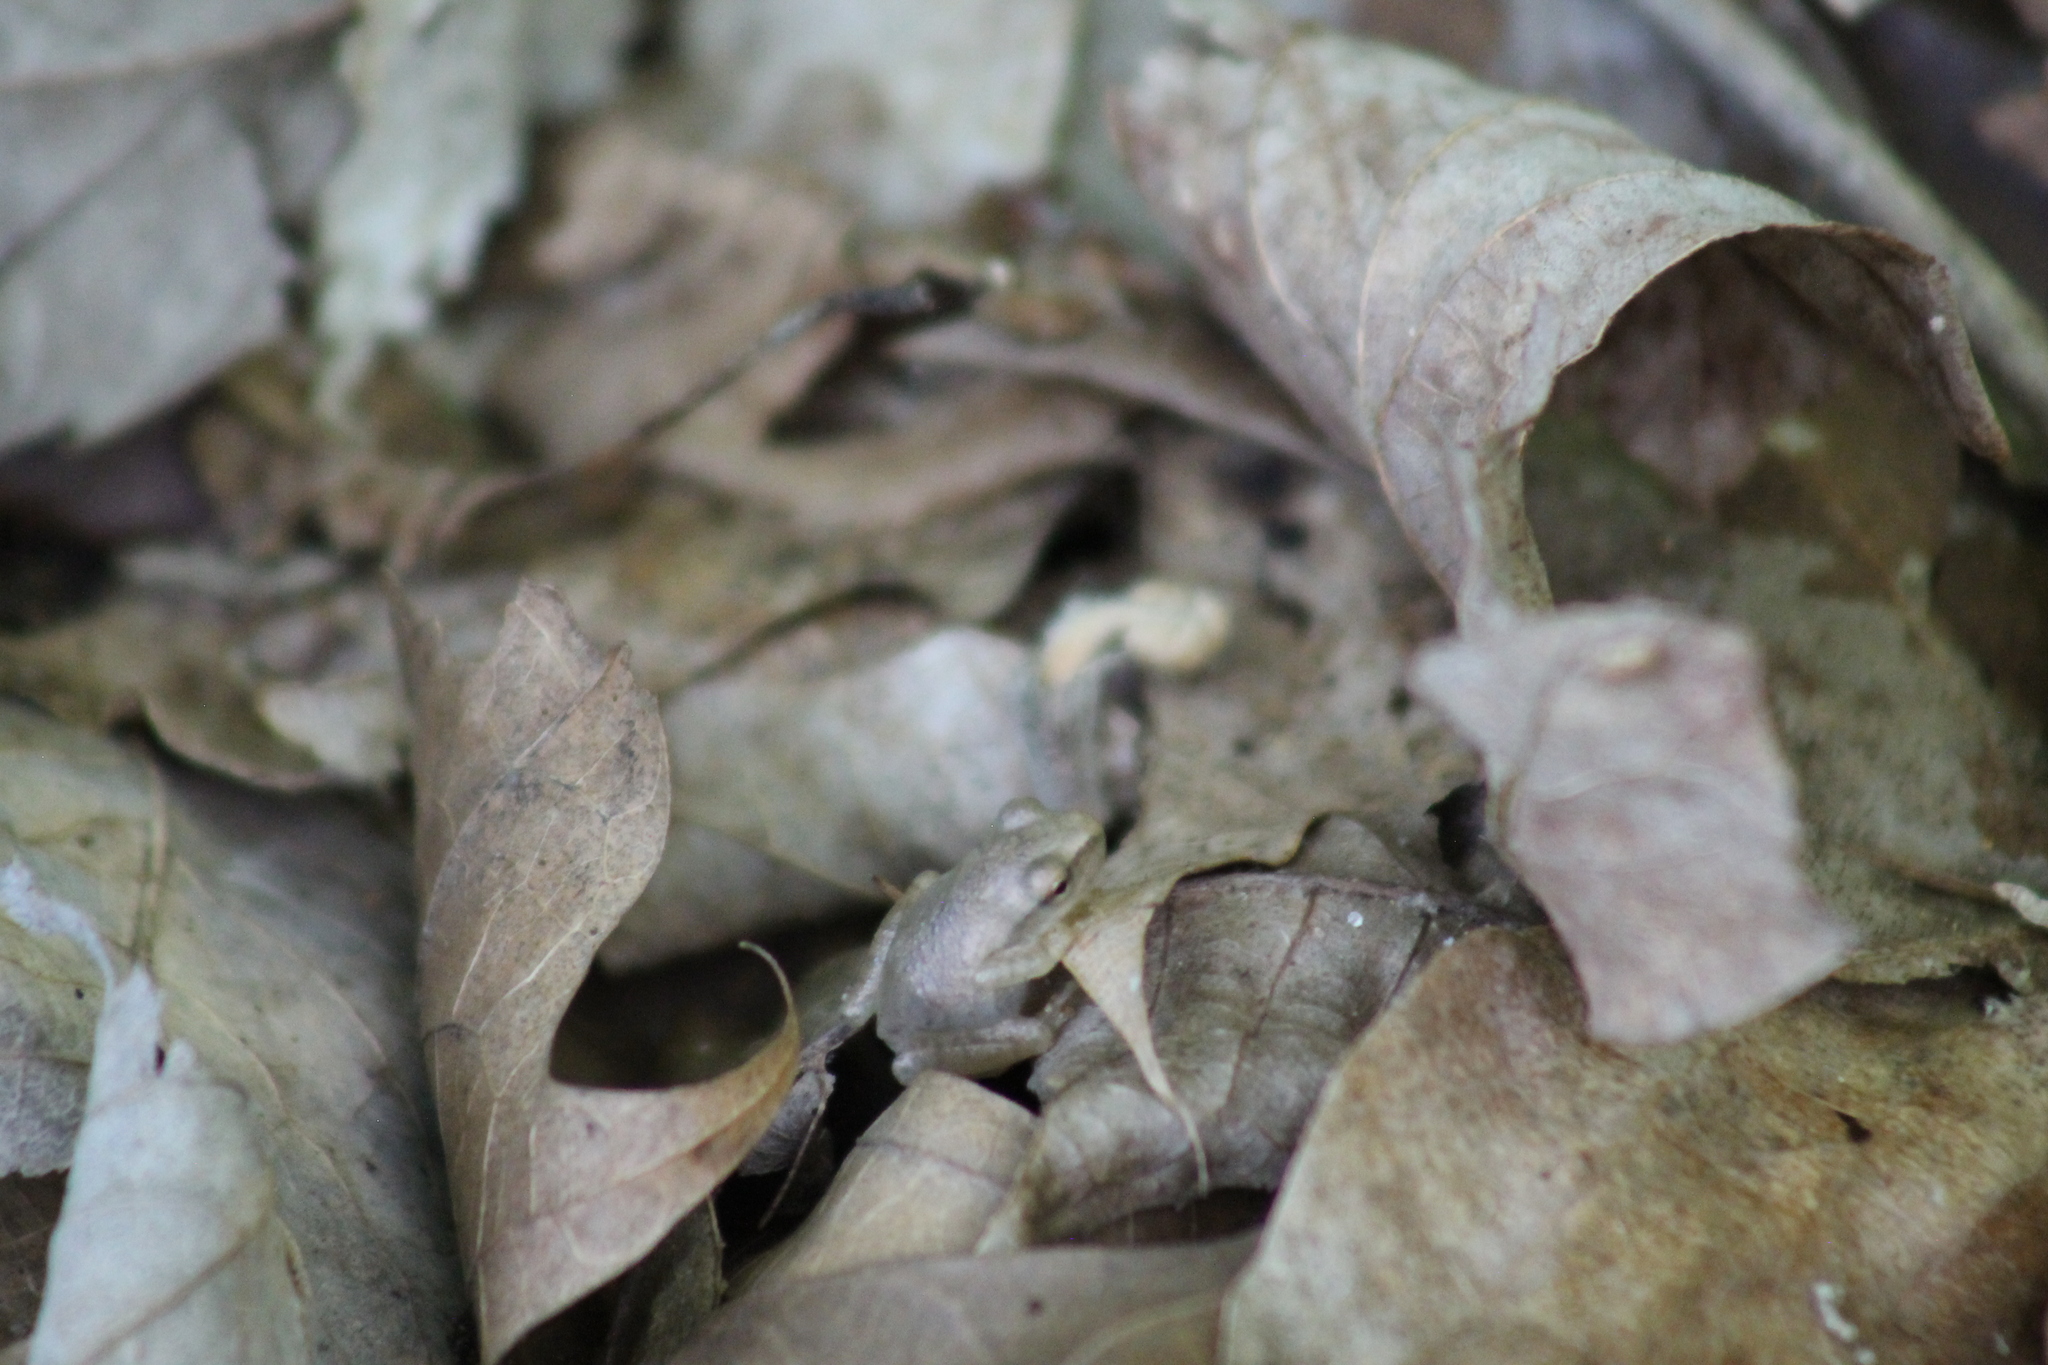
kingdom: Animalia
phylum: Chordata
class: Amphibia
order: Anura
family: Hylidae
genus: Pseudacris
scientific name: Pseudacris crucifer
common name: Spring peeper
